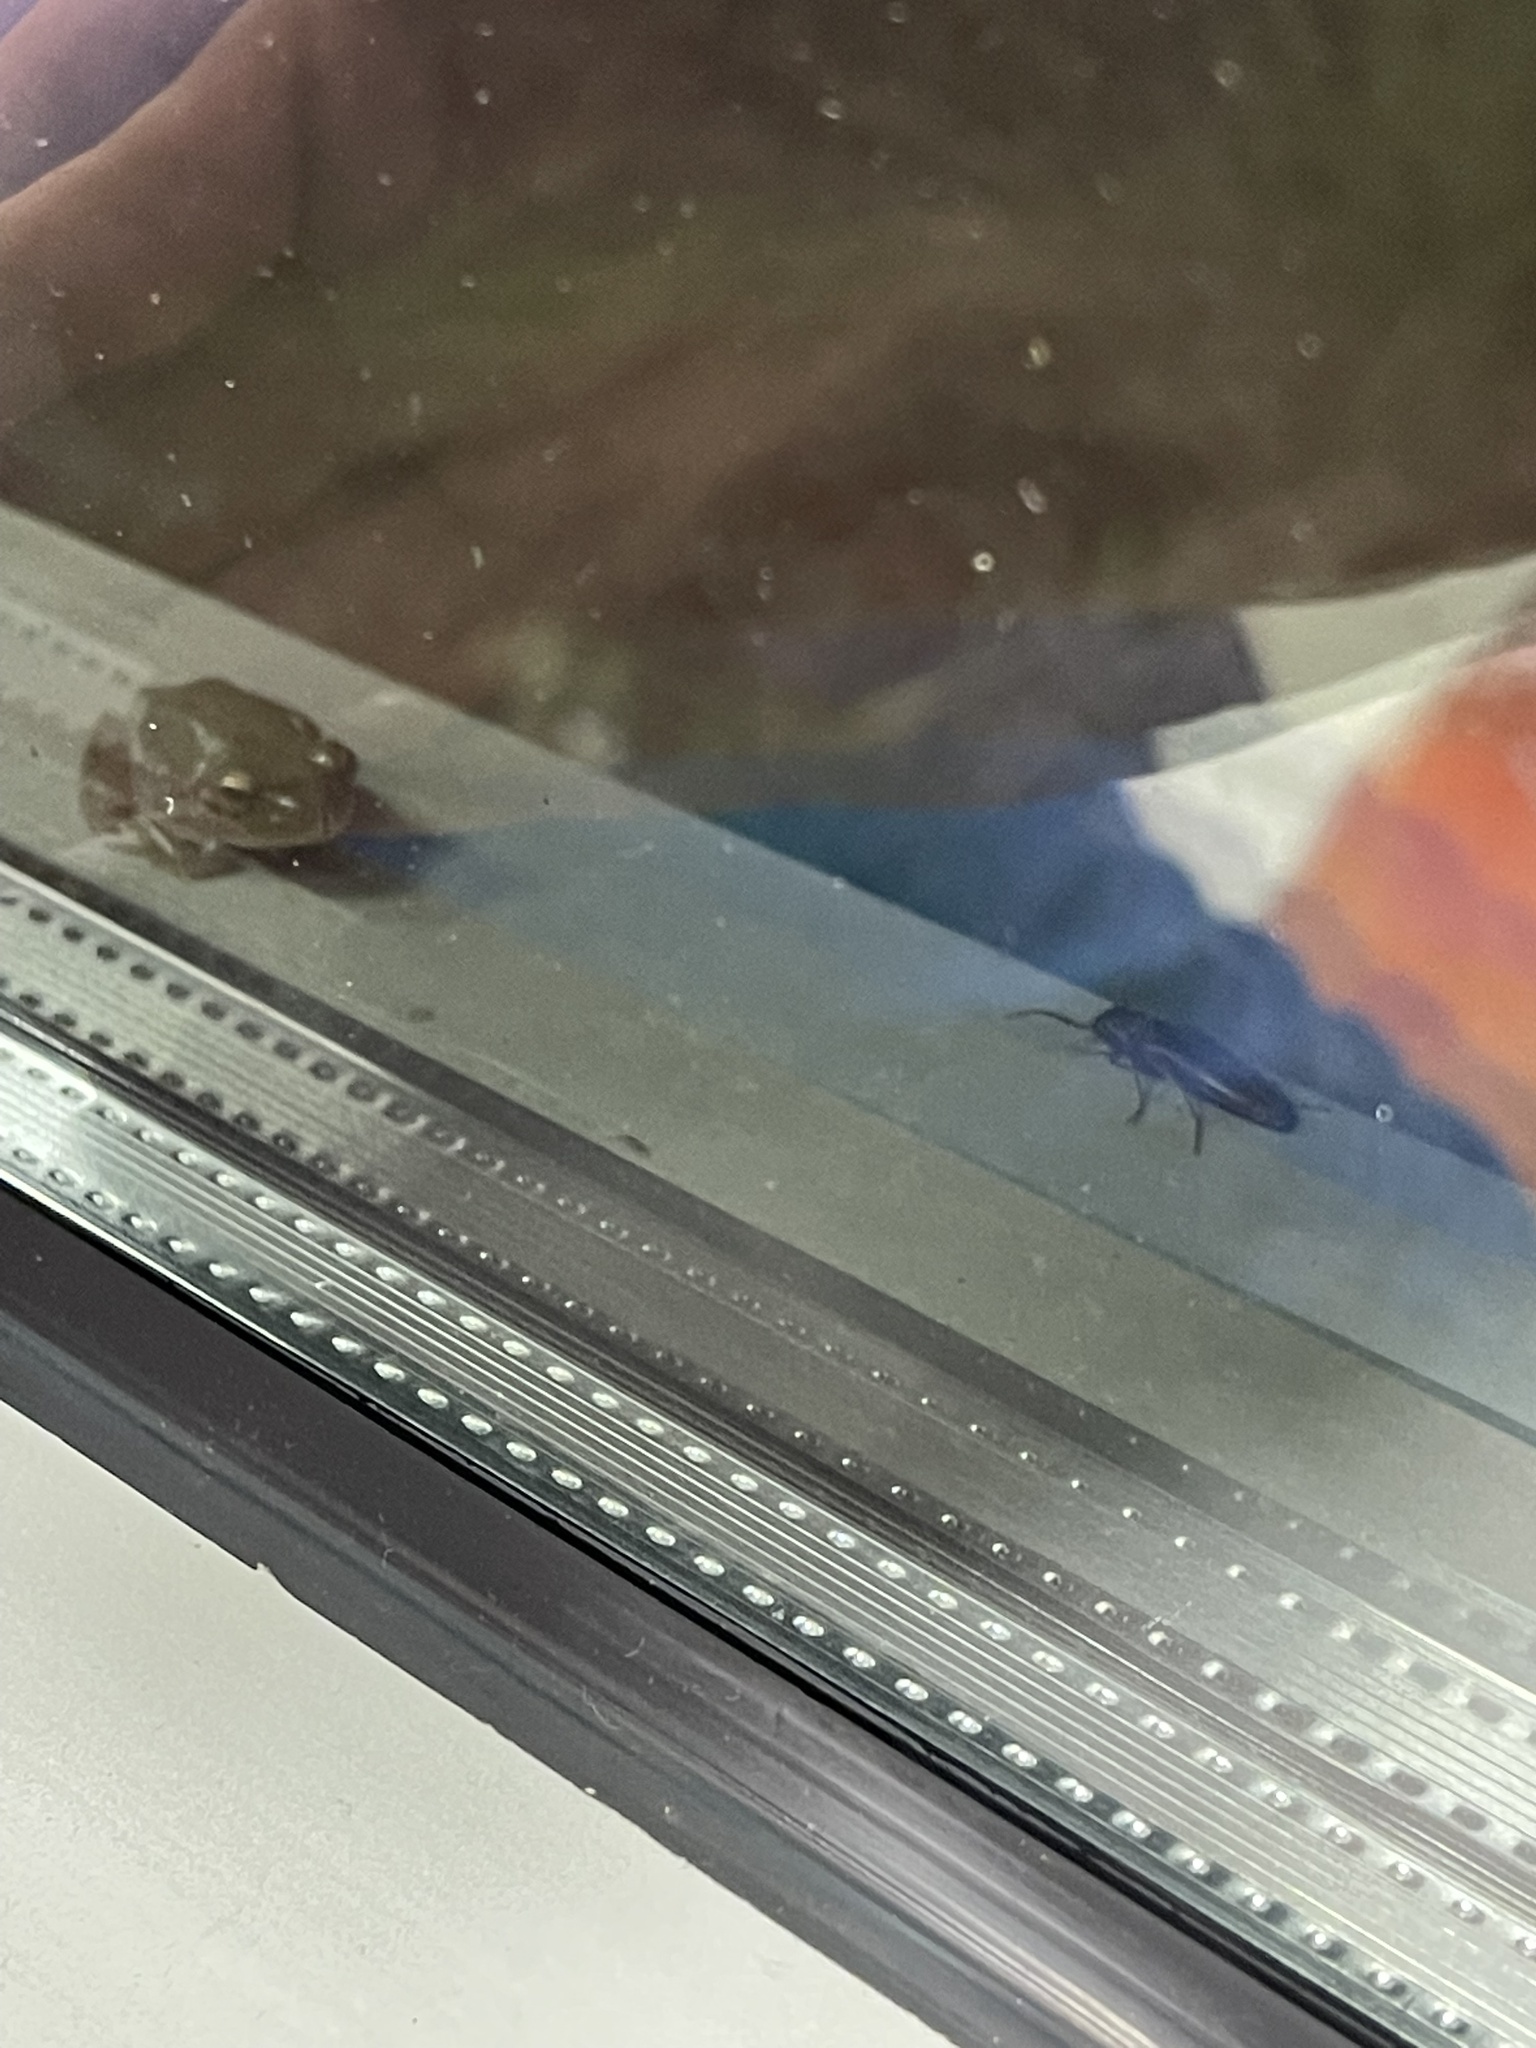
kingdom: Animalia
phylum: Chordata
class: Amphibia
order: Anura
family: Hylidae
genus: Dryophytes
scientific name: Dryophytes squirellus
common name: Squirrel treefrog
